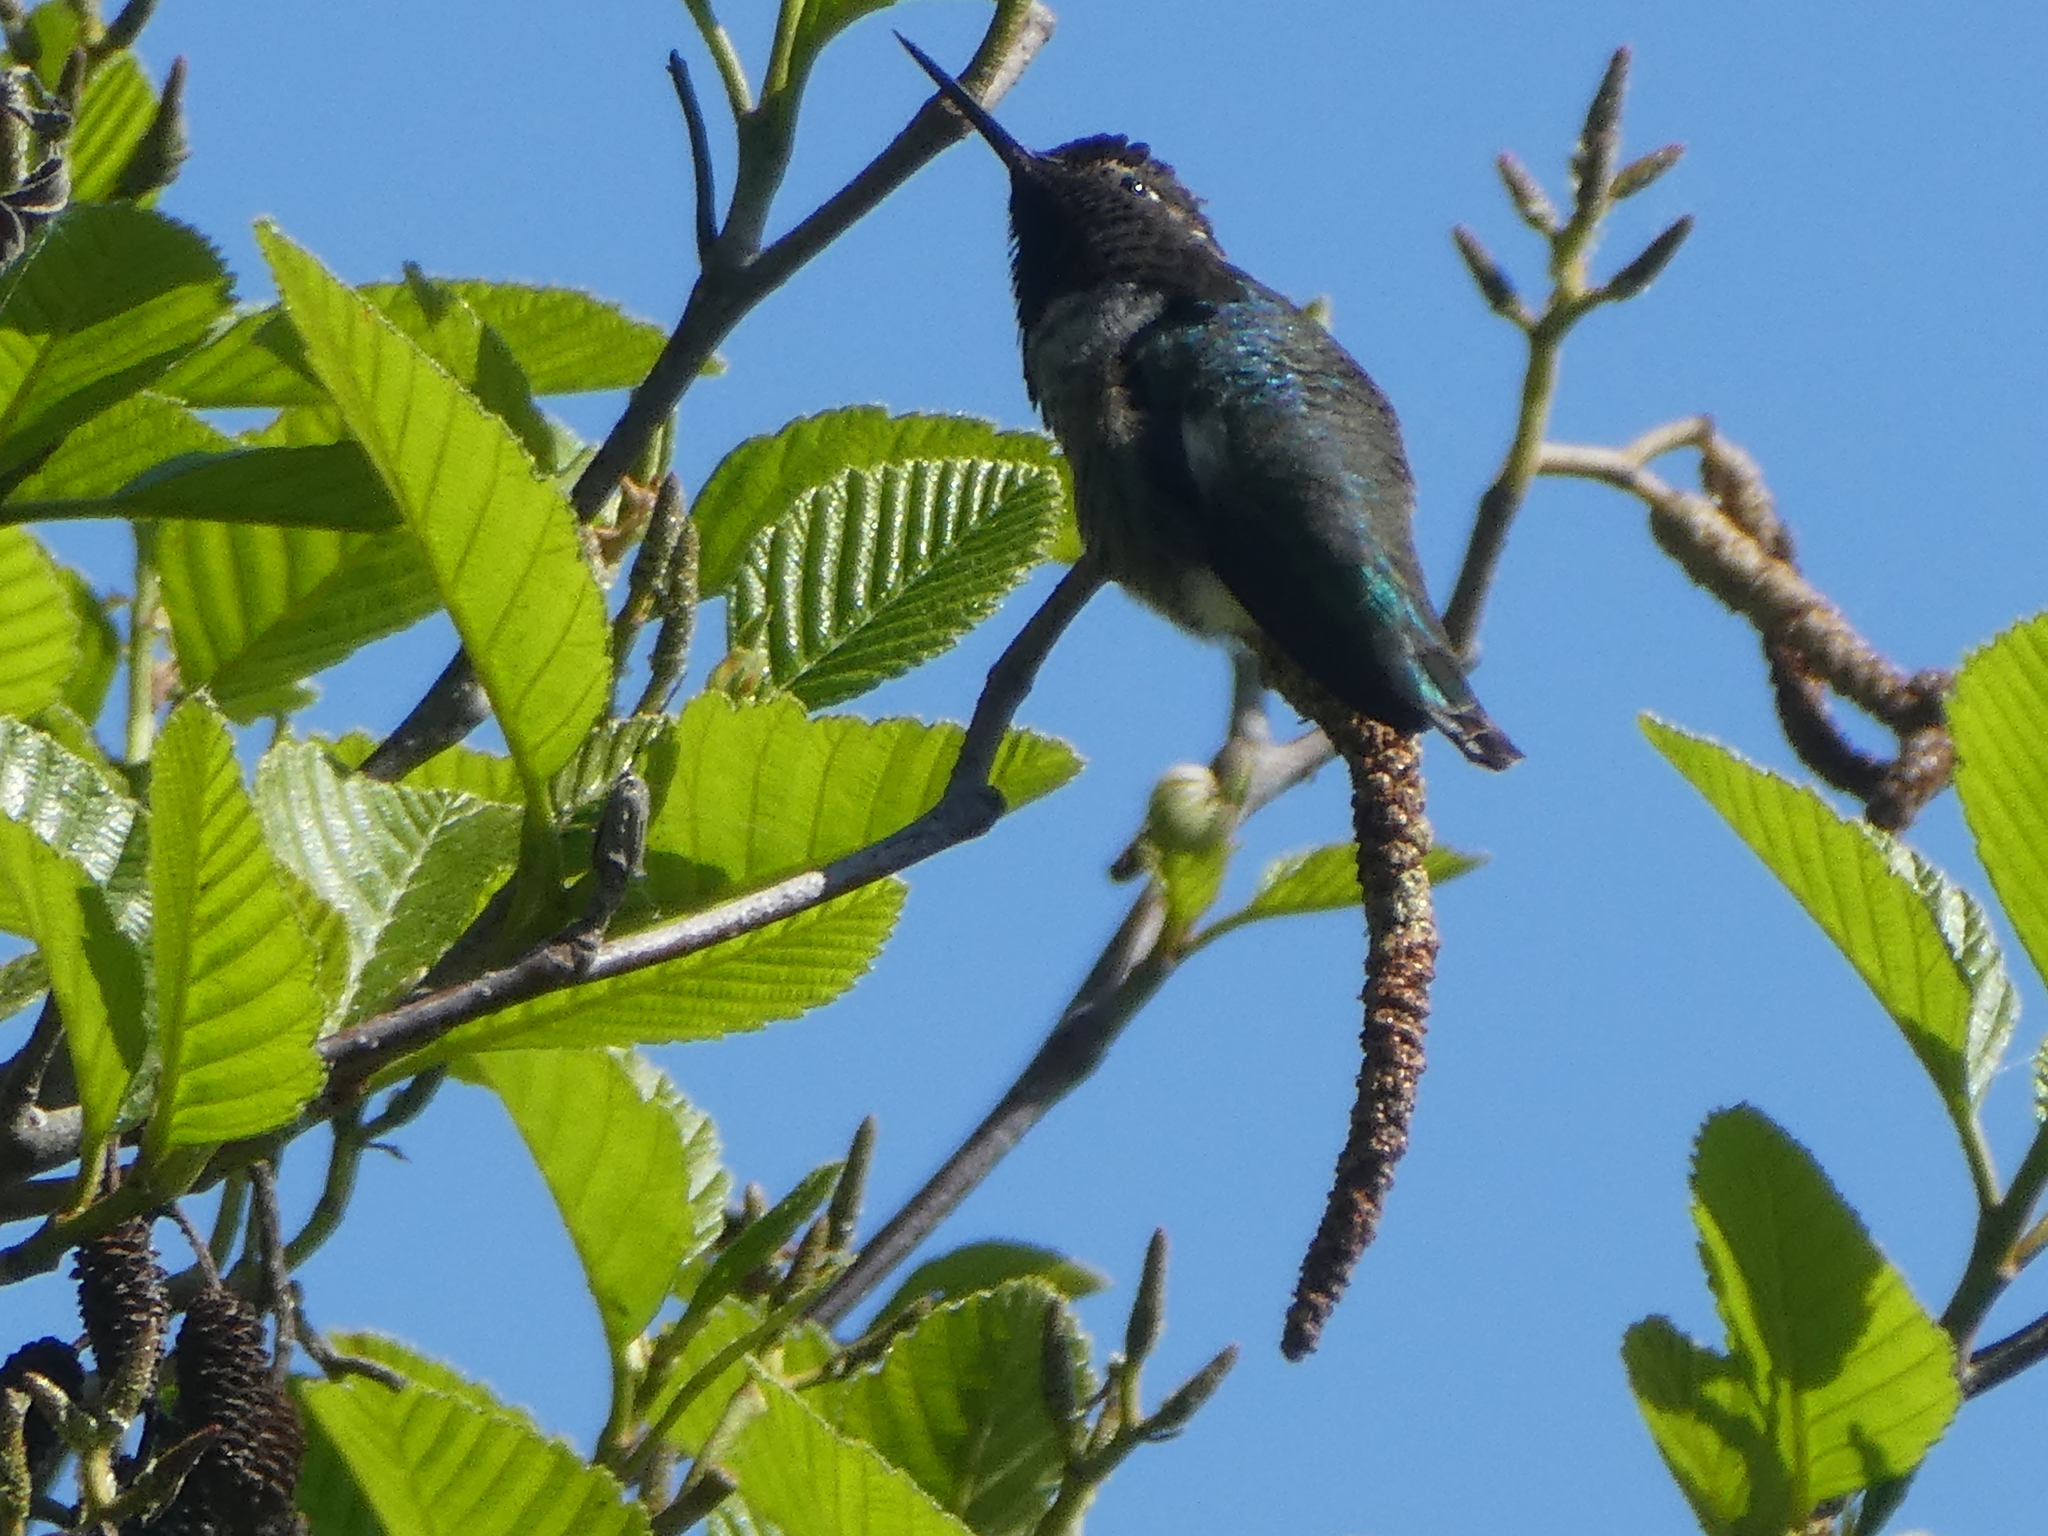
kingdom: Animalia
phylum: Chordata
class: Aves
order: Apodiformes
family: Trochilidae
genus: Calypte
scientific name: Calypte anna
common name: Anna's hummingbird
